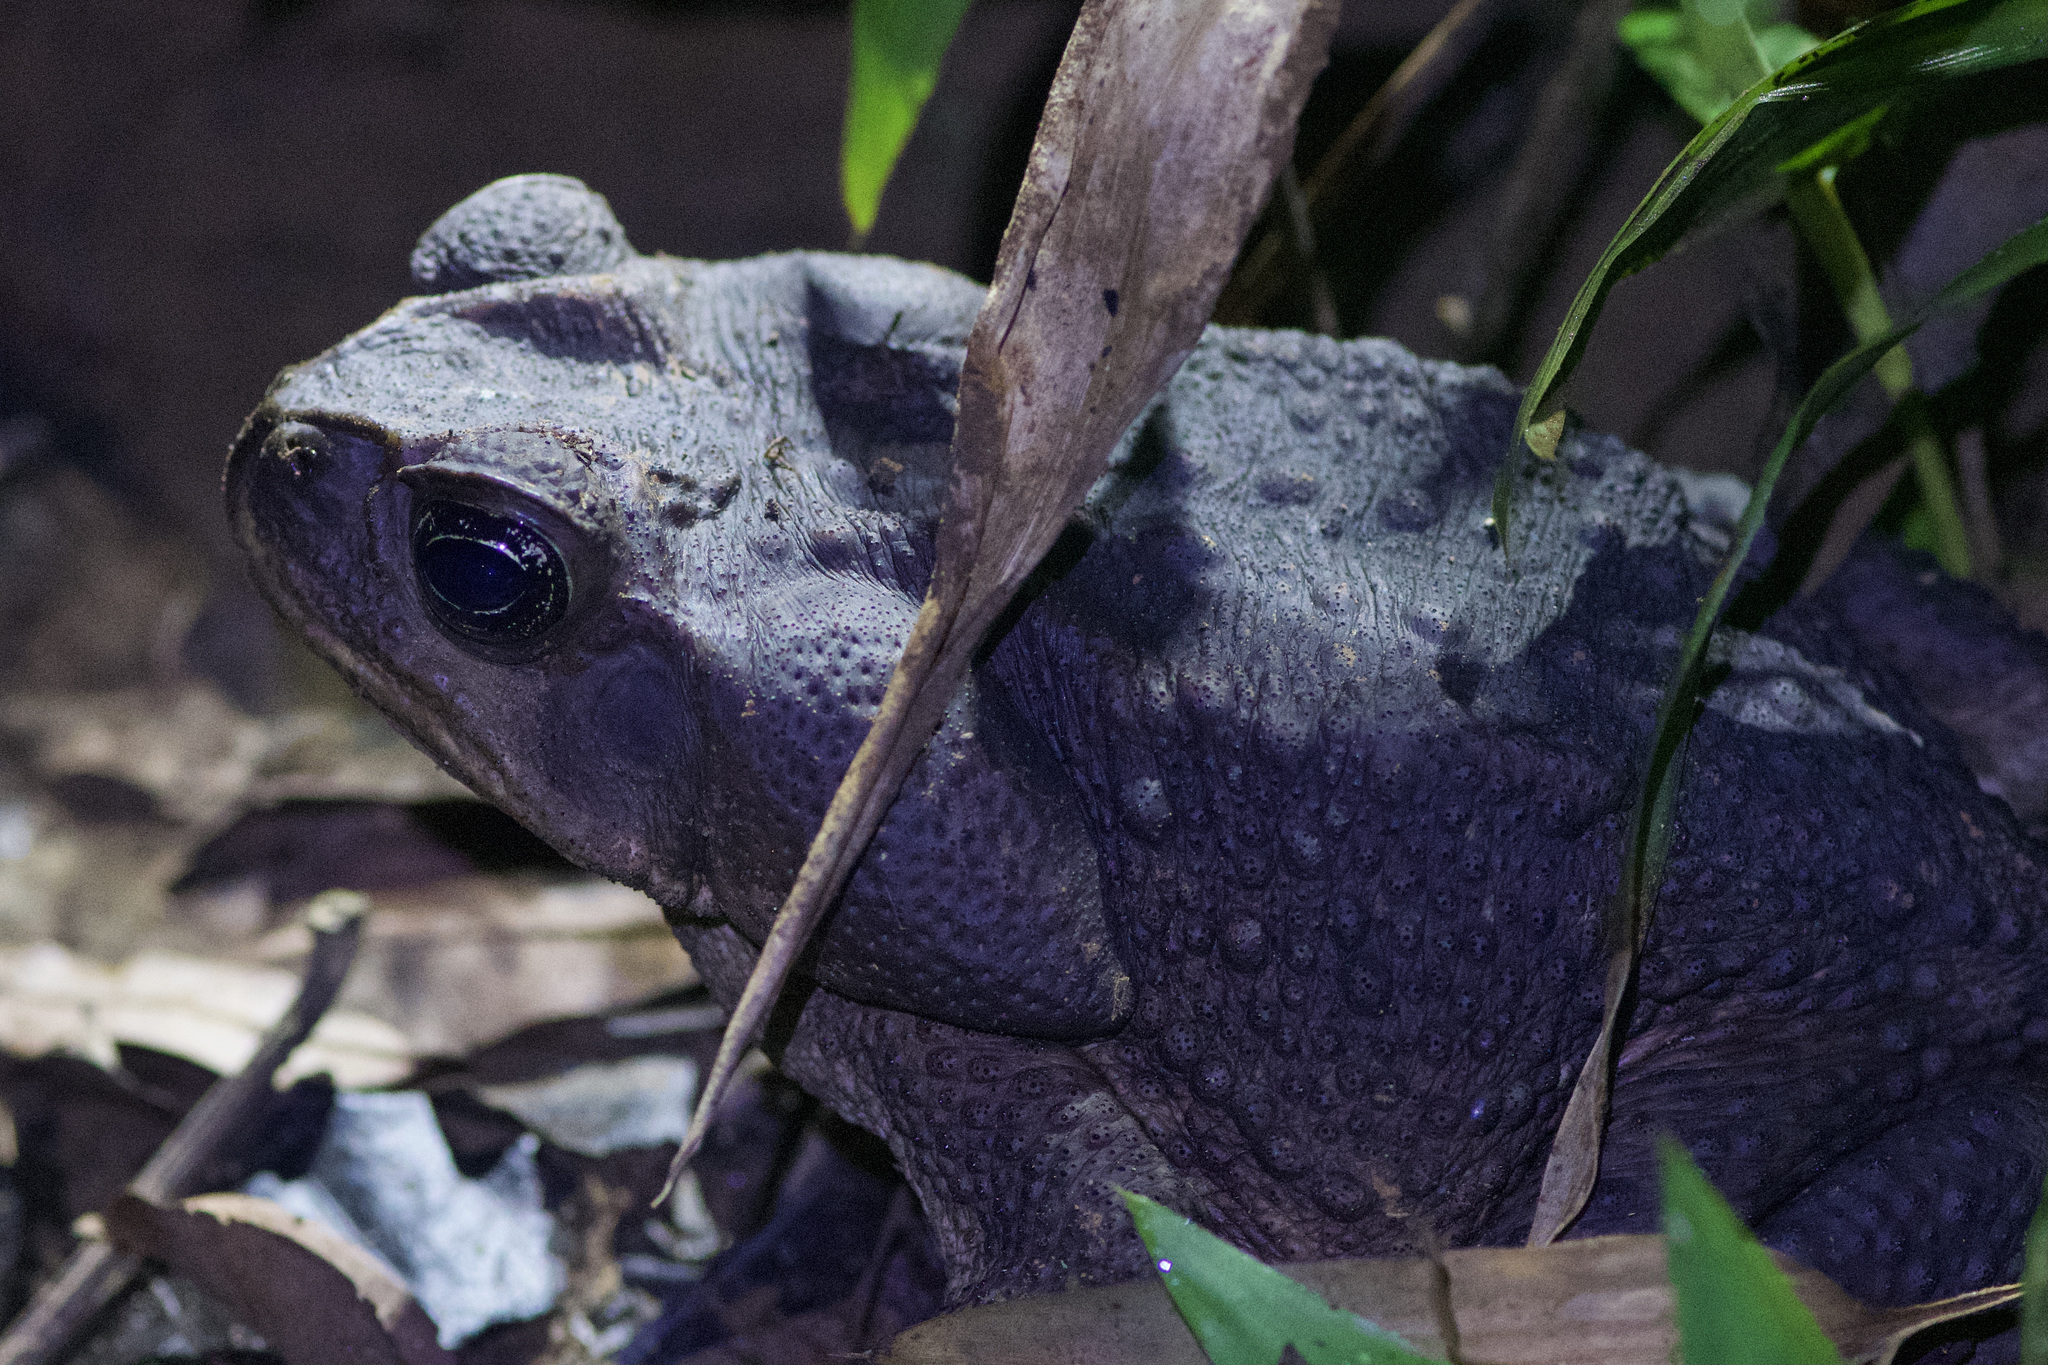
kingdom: Animalia
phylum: Chordata
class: Amphibia
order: Anura
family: Bufonidae
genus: Rhinella
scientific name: Rhinella horribilis
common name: Mesoamerican cane toad
